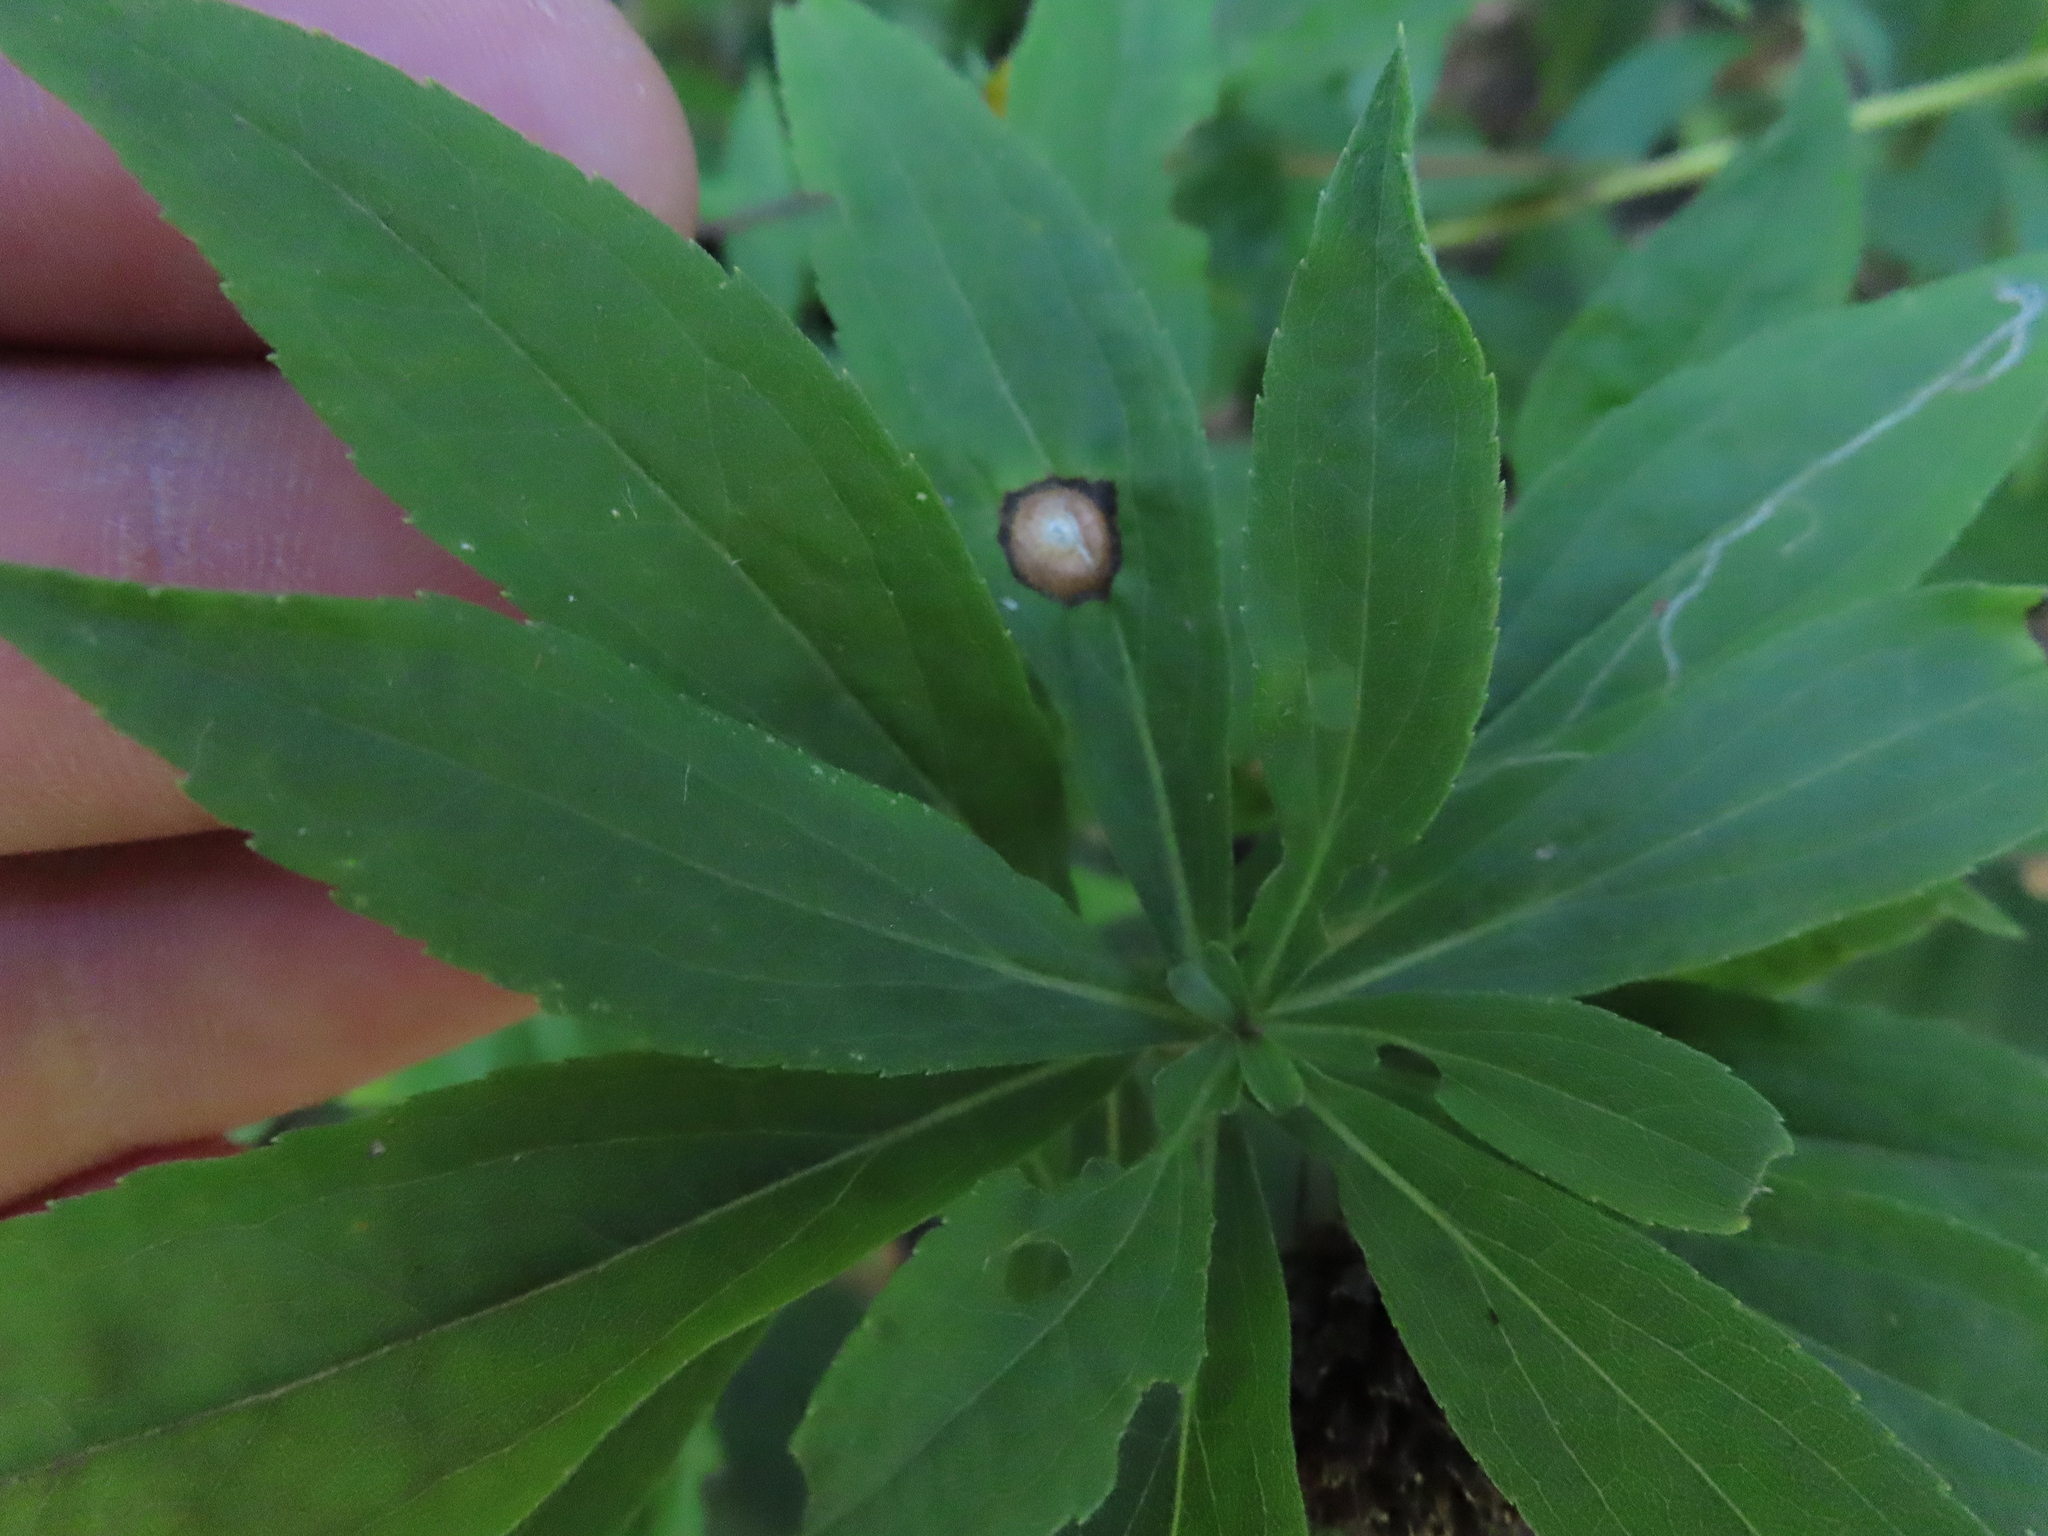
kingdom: Animalia
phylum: Arthropoda
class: Insecta
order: Diptera
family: Cecidomyiidae
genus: Asteromyia
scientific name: Asteromyia carbonifera
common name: Carbonifera goldenrod gall midge
